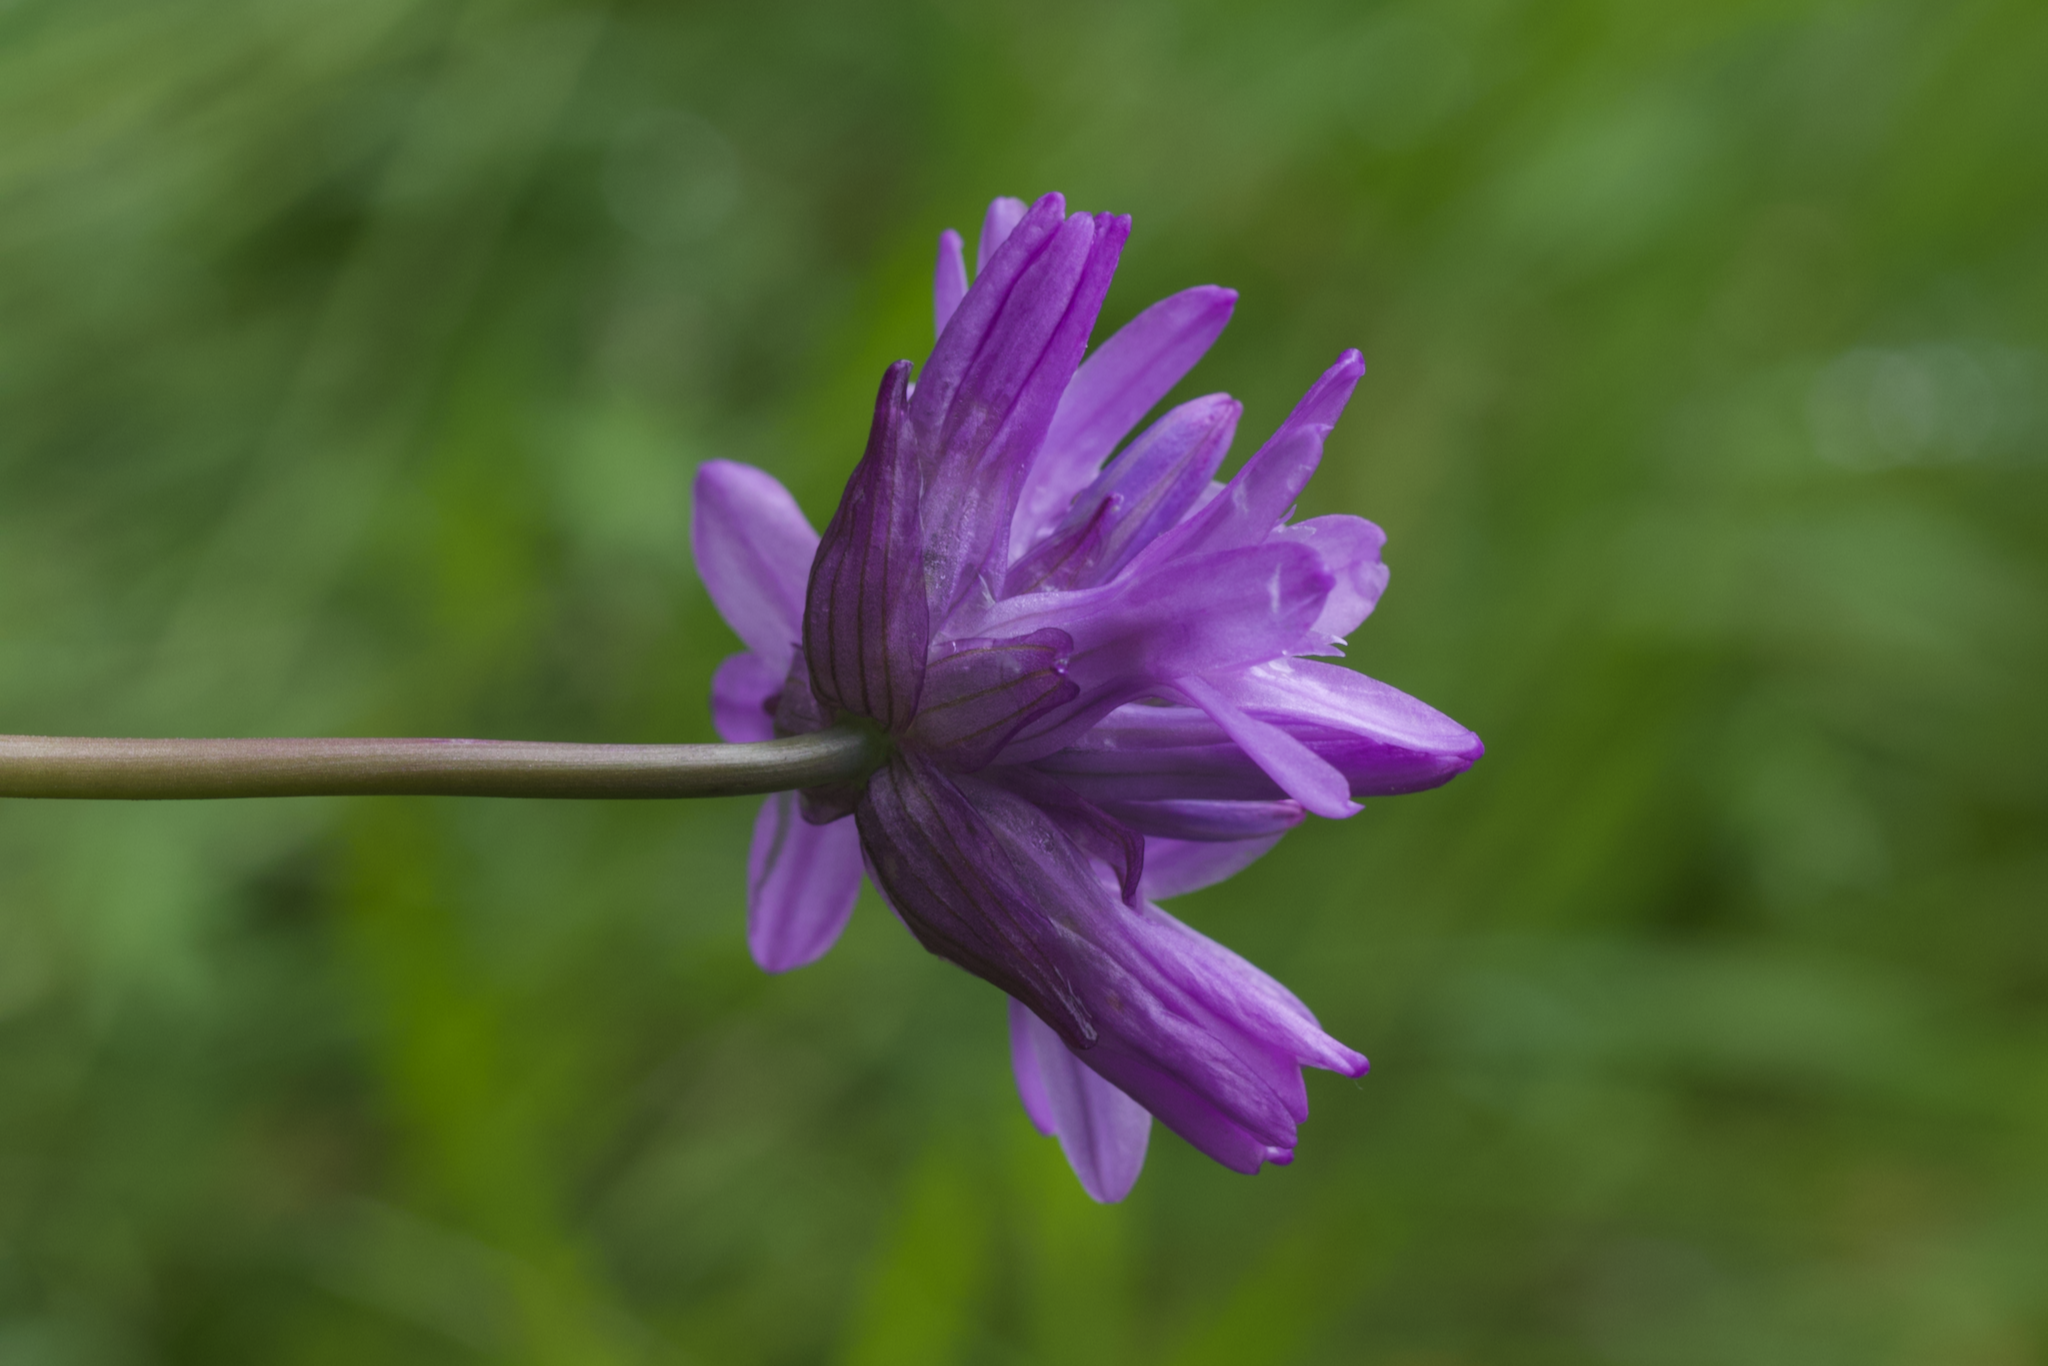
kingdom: Plantae
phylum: Tracheophyta
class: Liliopsida
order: Asparagales
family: Asparagaceae
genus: Dichelostemma
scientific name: Dichelostemma congestum
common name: Fork-tooth ookow
